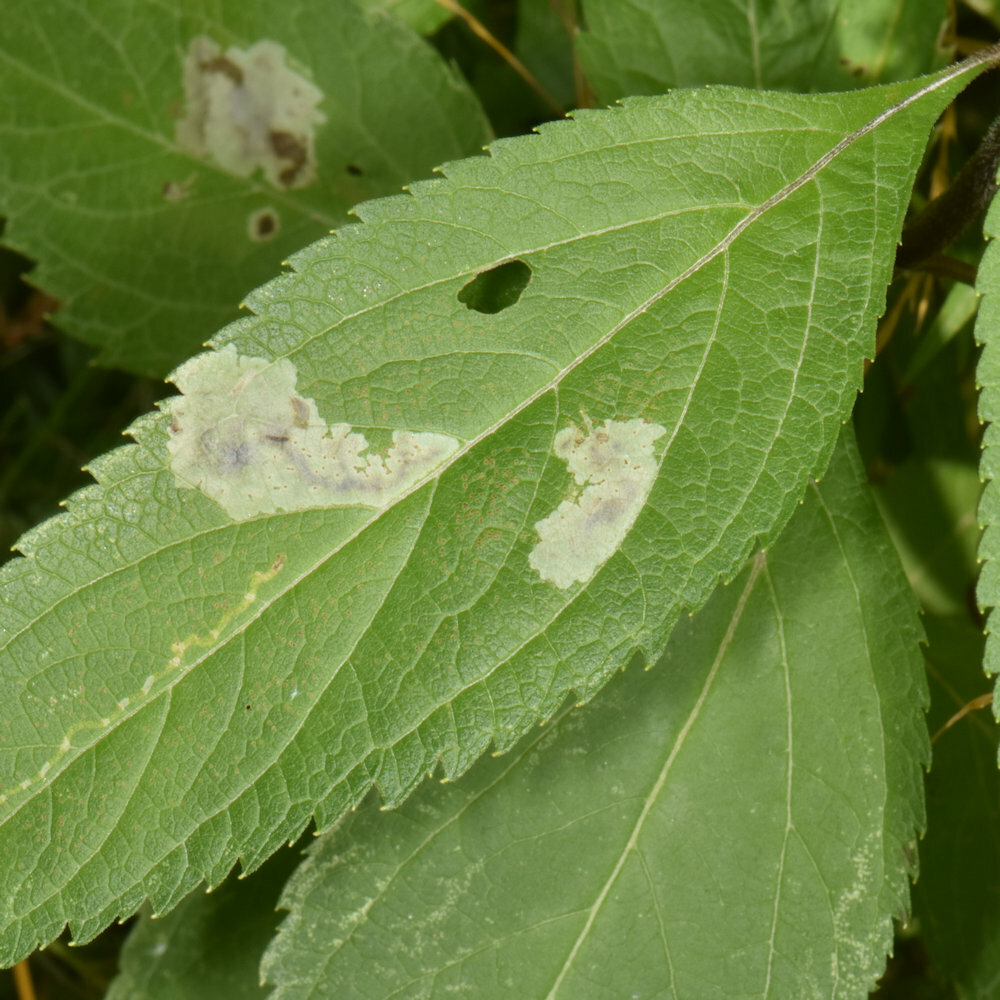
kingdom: Animalia
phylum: Arthropoda
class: Insecta
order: Diptera
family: Agromyzidae
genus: Calycomyza
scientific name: Calycomyza flavinotum
